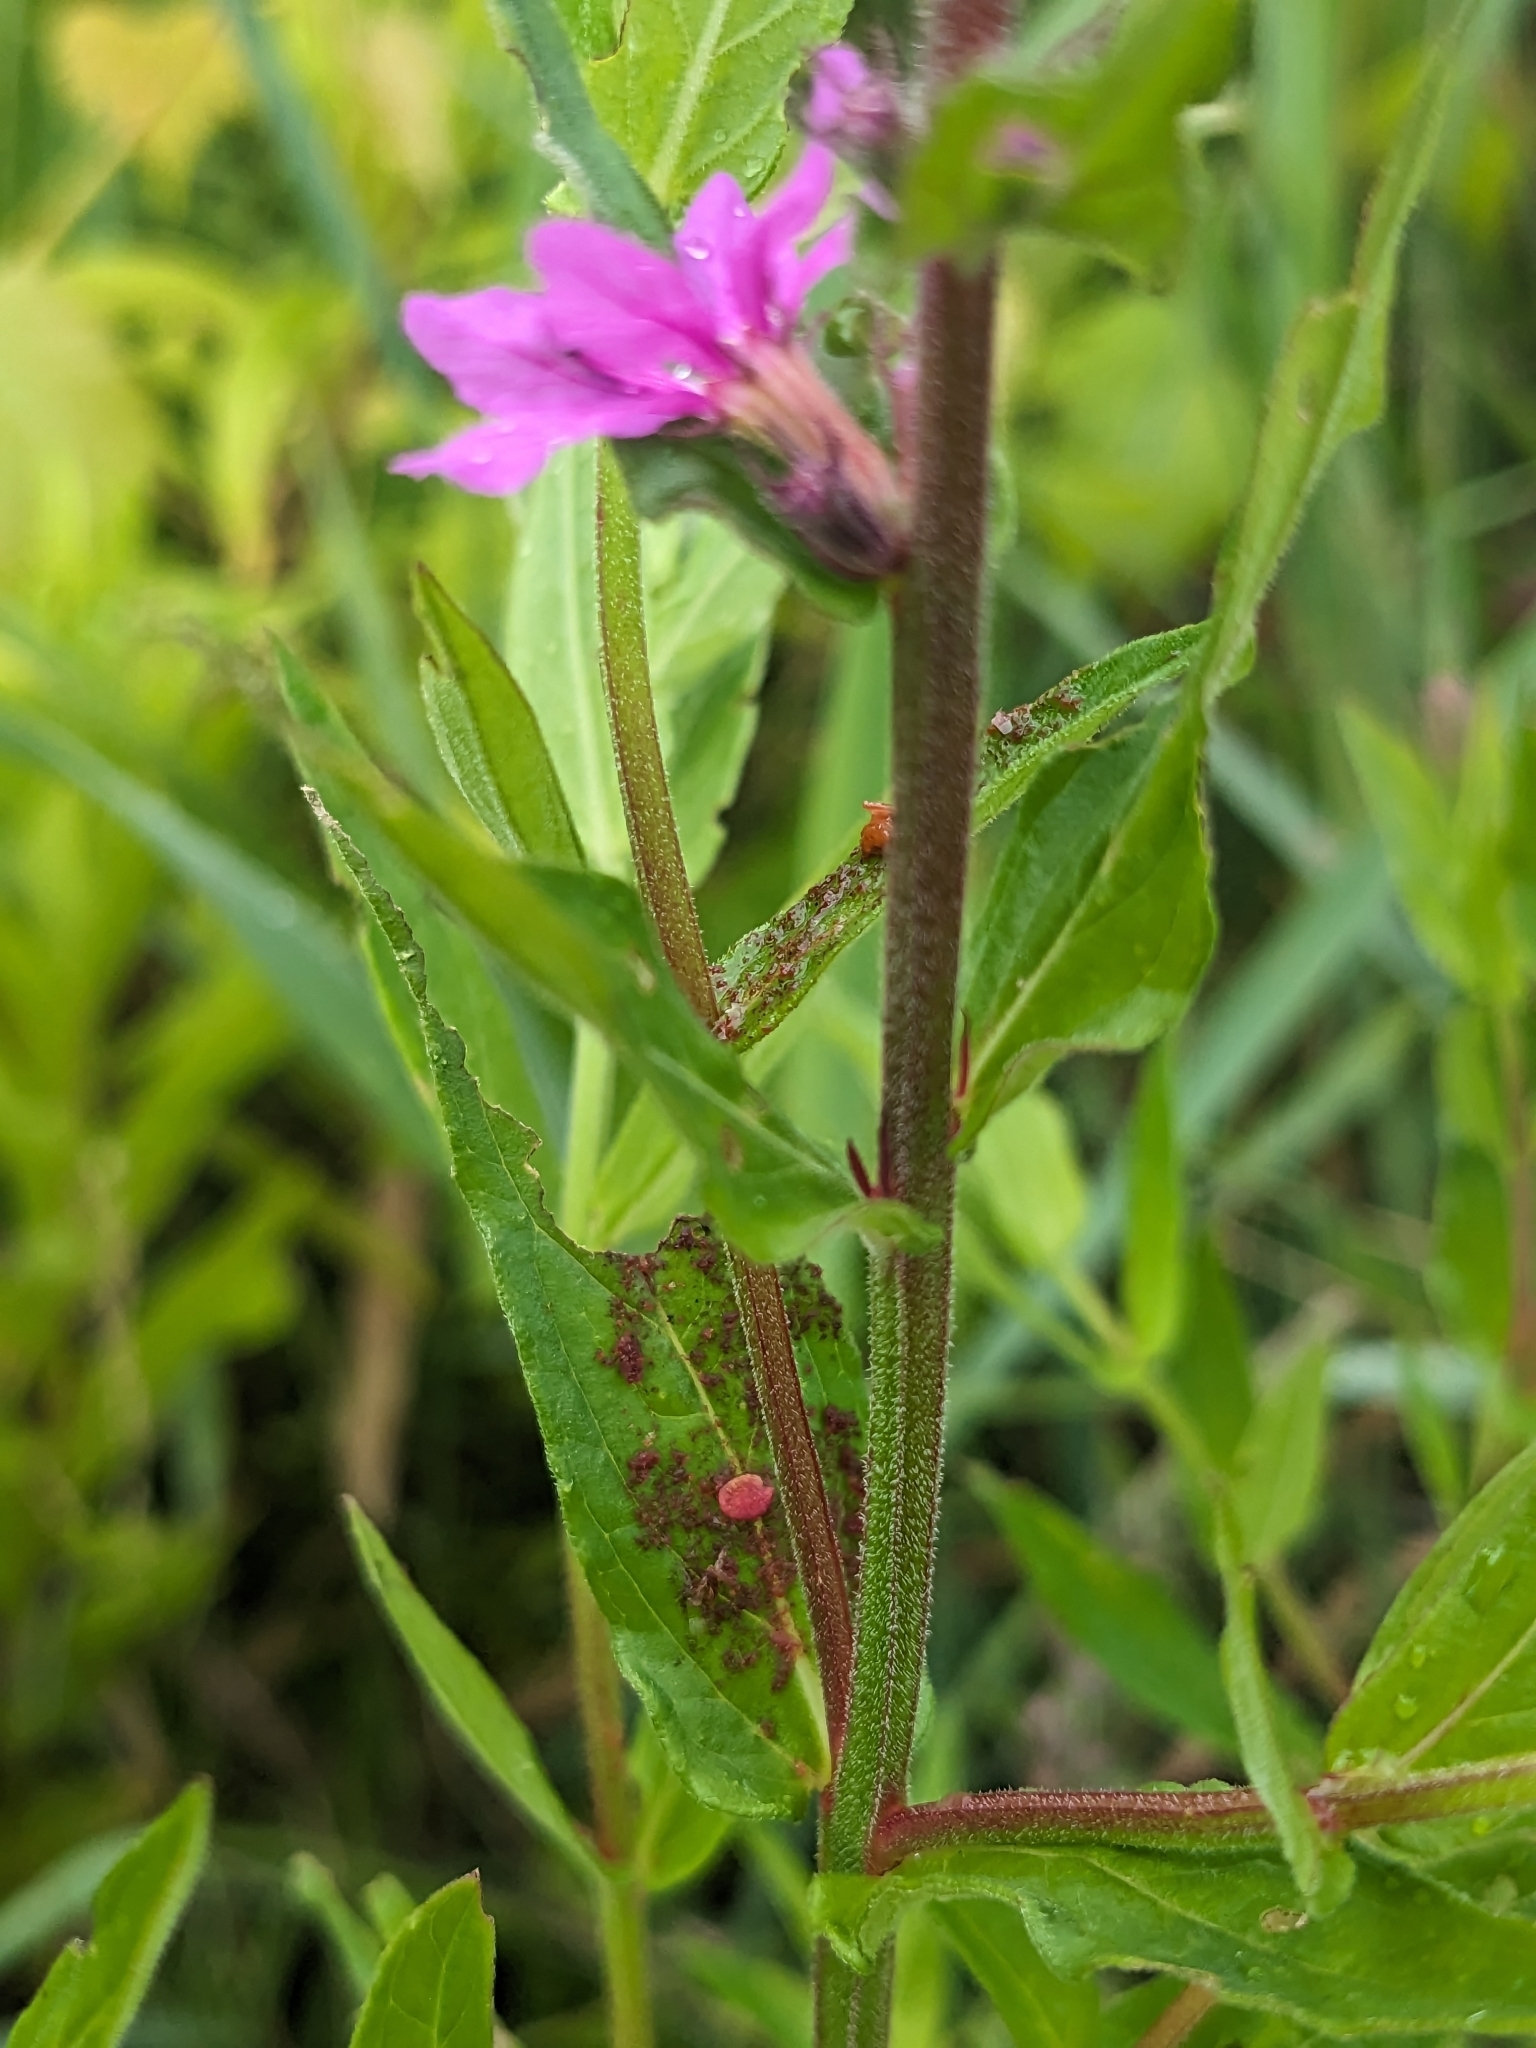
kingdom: Plantae
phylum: Tracheophyta
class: Magnoliopsida
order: Myrtales
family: Lythraceae
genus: Lythrum
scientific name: Lythrum salicaria
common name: Purple loosestrife
